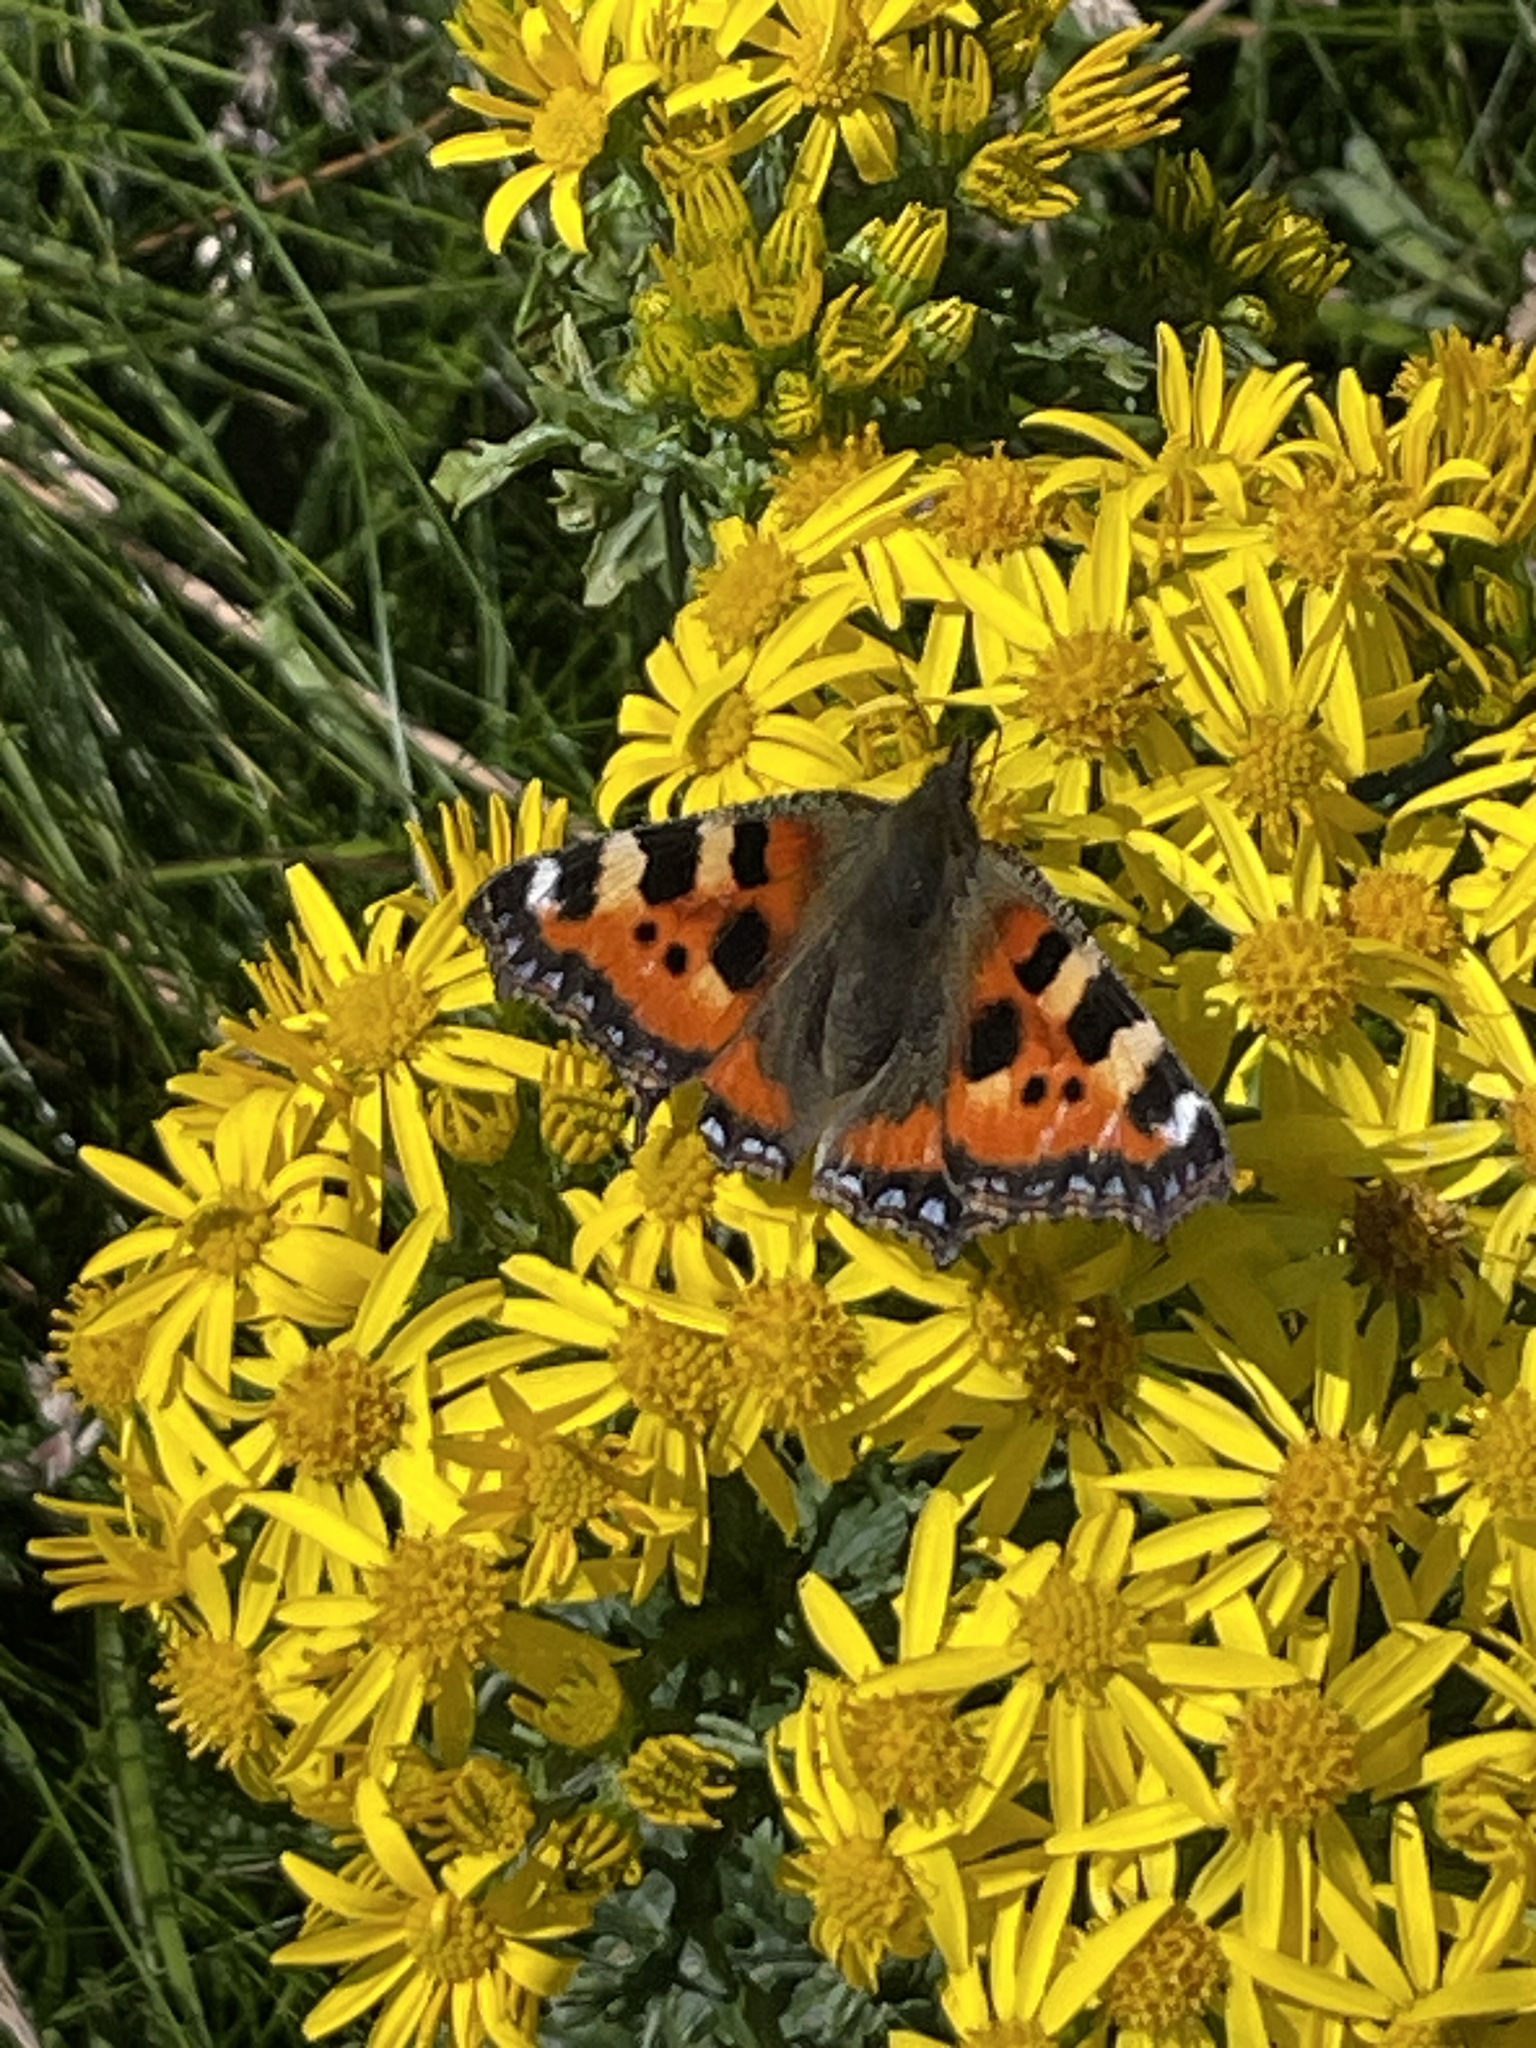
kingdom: Animalia
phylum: Arthropoda
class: Insecta
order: Lepidoptera
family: Nymphalidae
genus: Aglais
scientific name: Aglais urticae
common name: Small tortoiseshell
